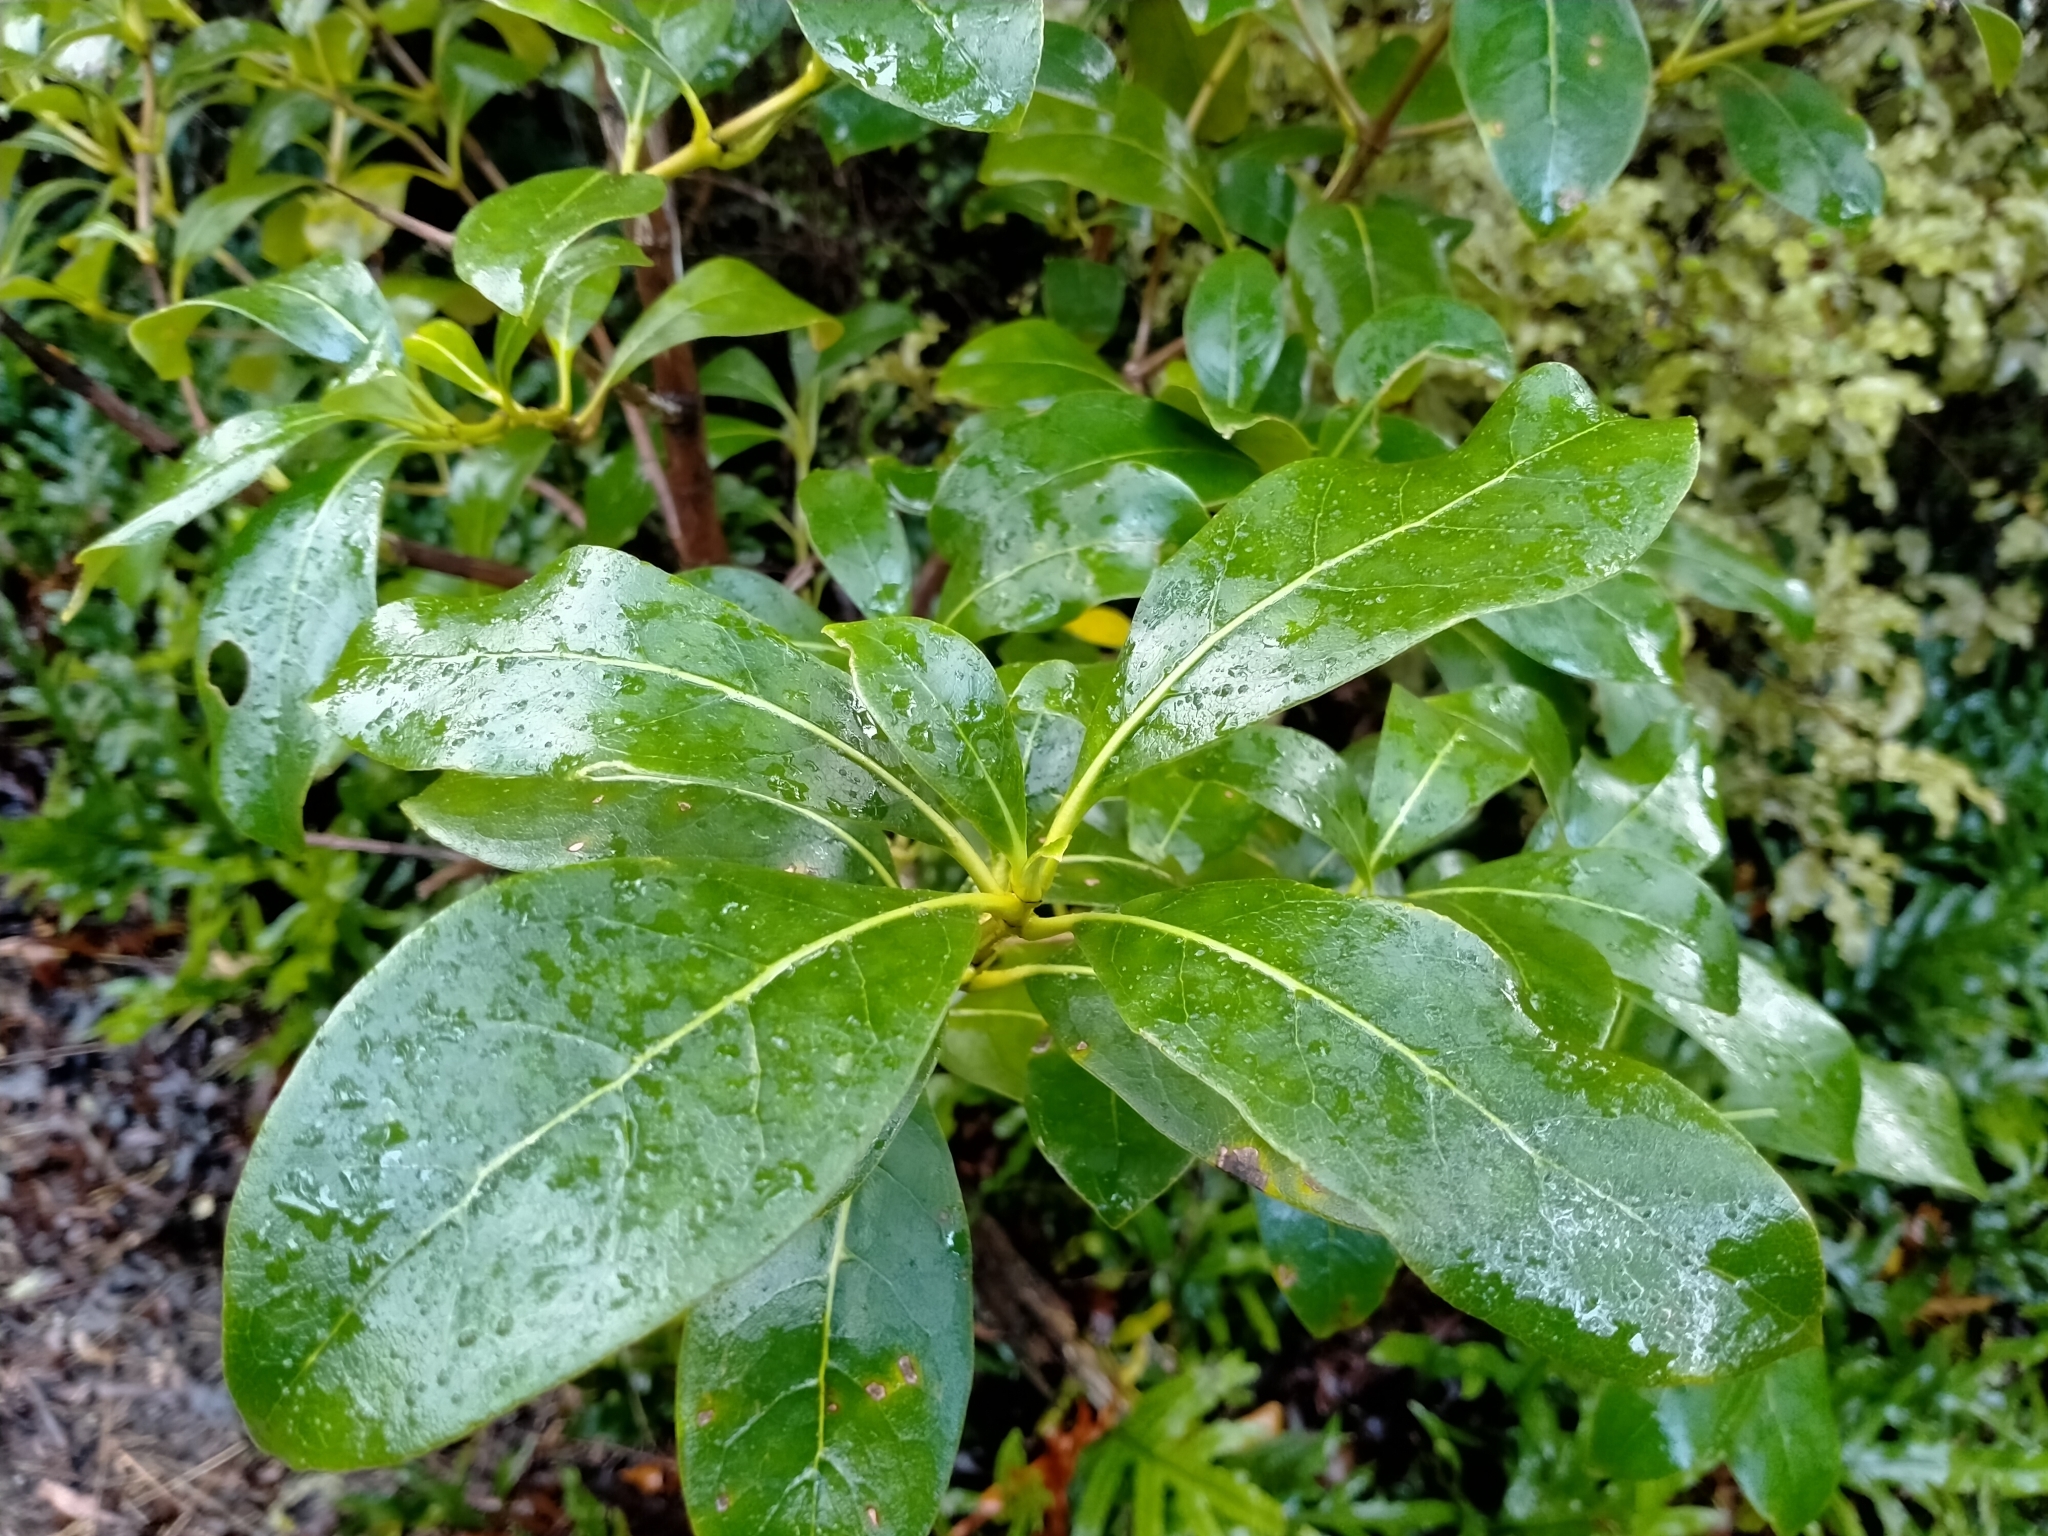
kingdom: Plantae
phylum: Tracheophyta
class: Magnoliopsida
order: Gentianales
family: Rubiaceae
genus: Coprosma
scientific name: Coprosma lucida
